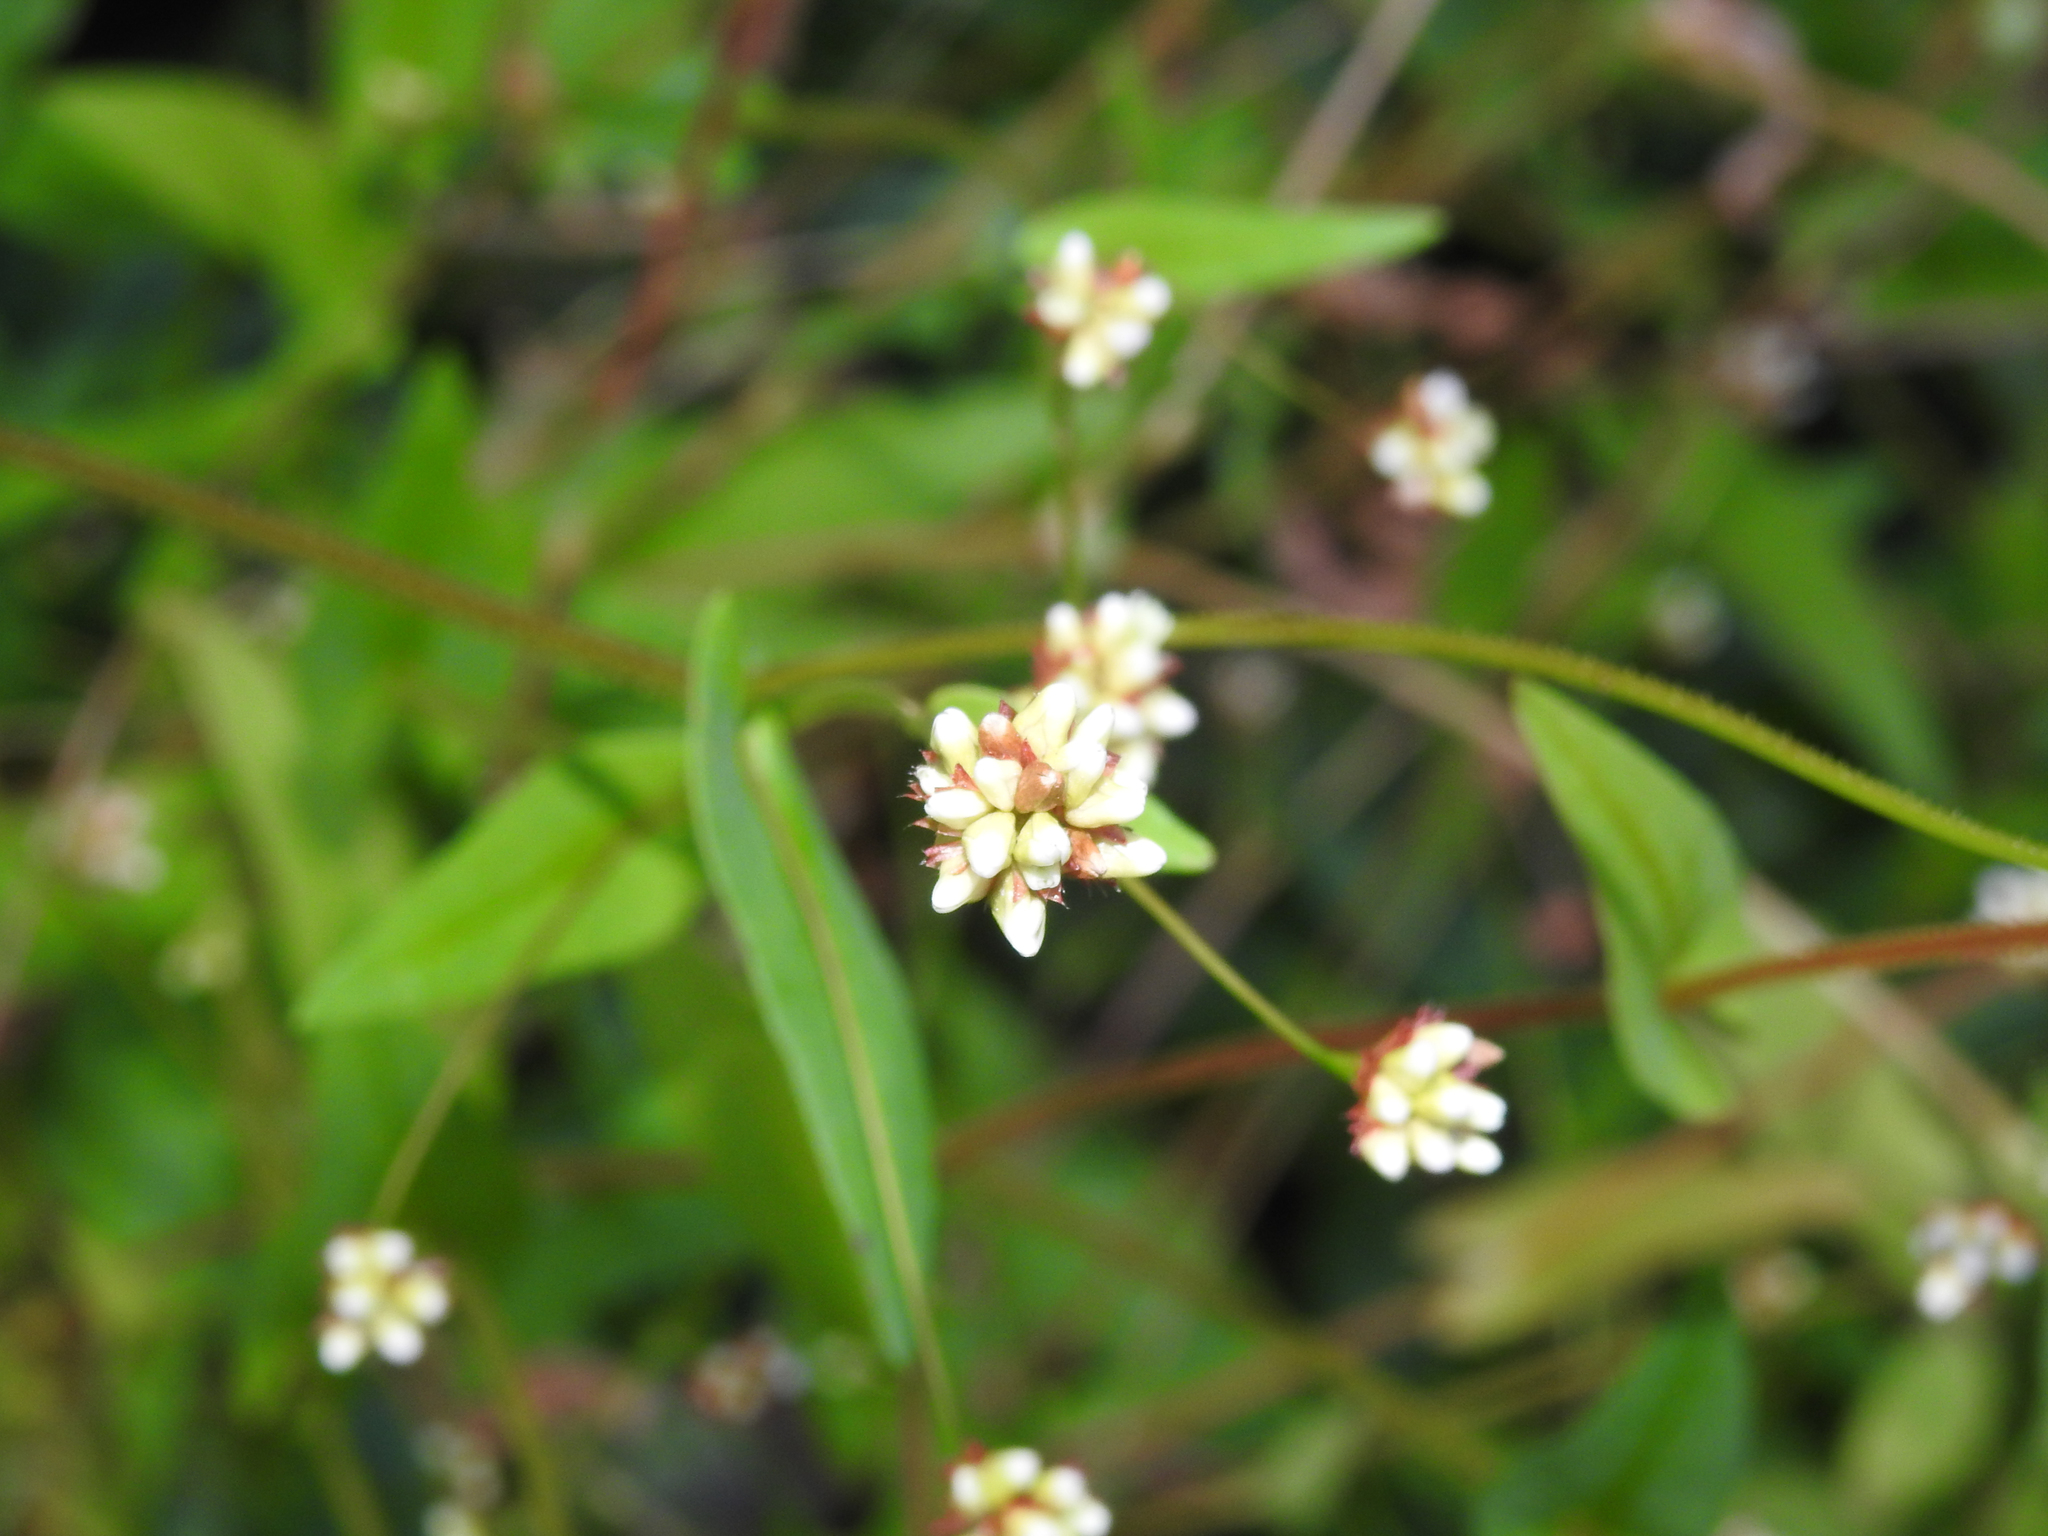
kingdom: Plantae
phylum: Tracheophyta
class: Magnoliopsida
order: Caryophyllales
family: Polygonaceae
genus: Persicaria
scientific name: Persicaria sagittata
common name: American tearthumb
